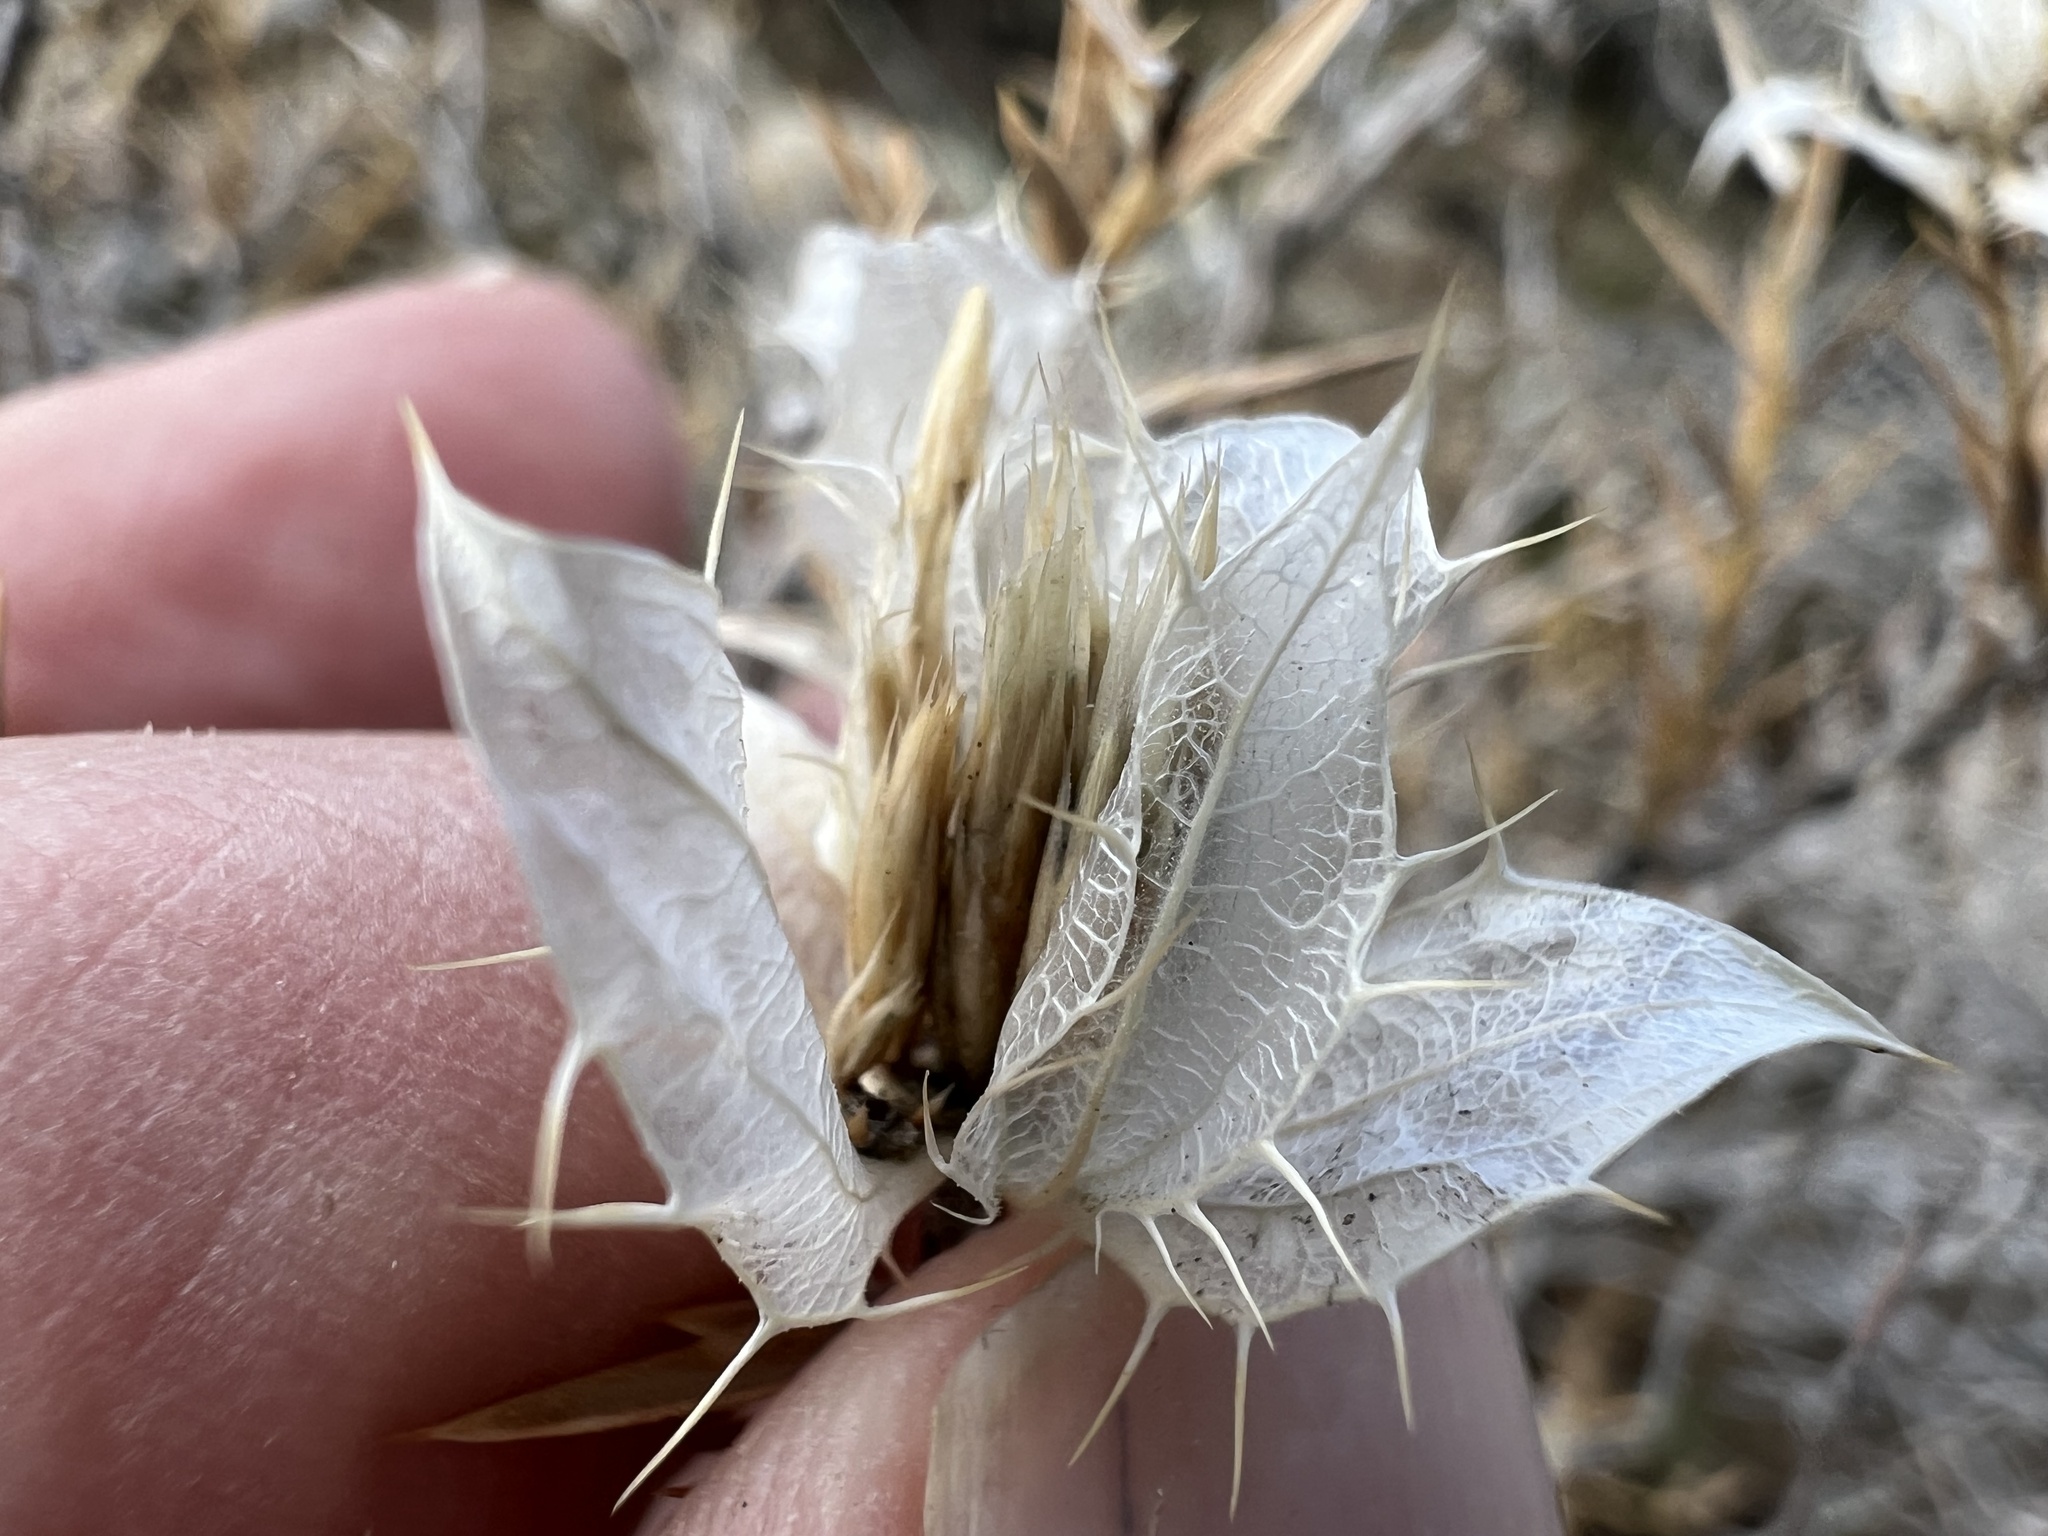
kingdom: Plantae
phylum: Tracheophyta
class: Magnoliopsida
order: Asterales
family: Asteraceae
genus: Hecastocleis
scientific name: Hecastocleis shockleyi
